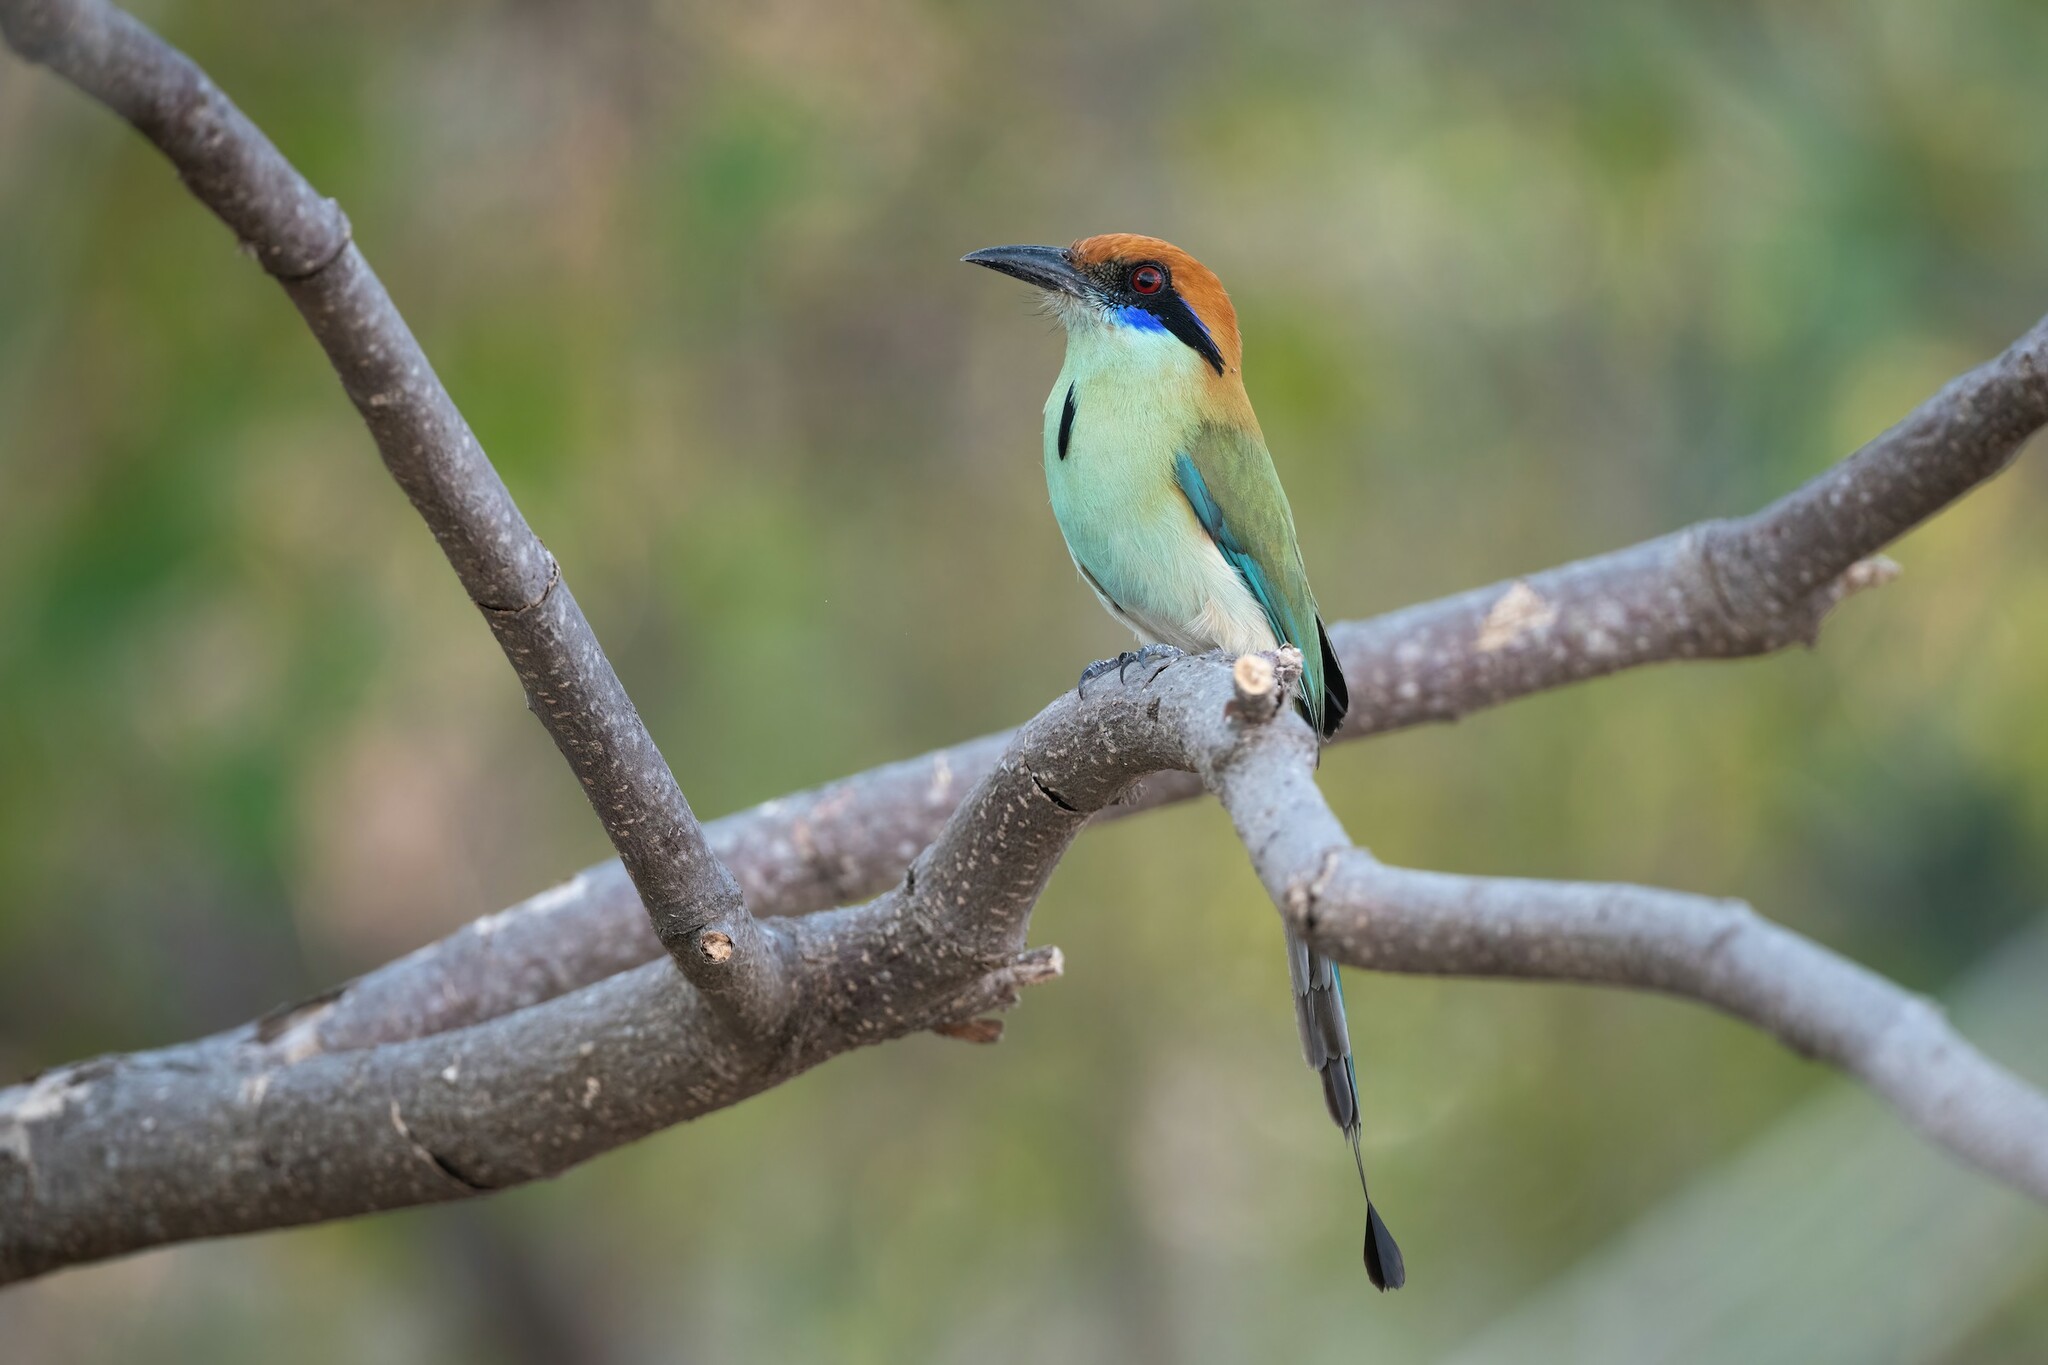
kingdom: Animalia
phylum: Chordata
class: Aves
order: Coraciiformes
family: Momotidae
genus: Momotus
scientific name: Momotus mexicanus
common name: Russet-crowned motmot
